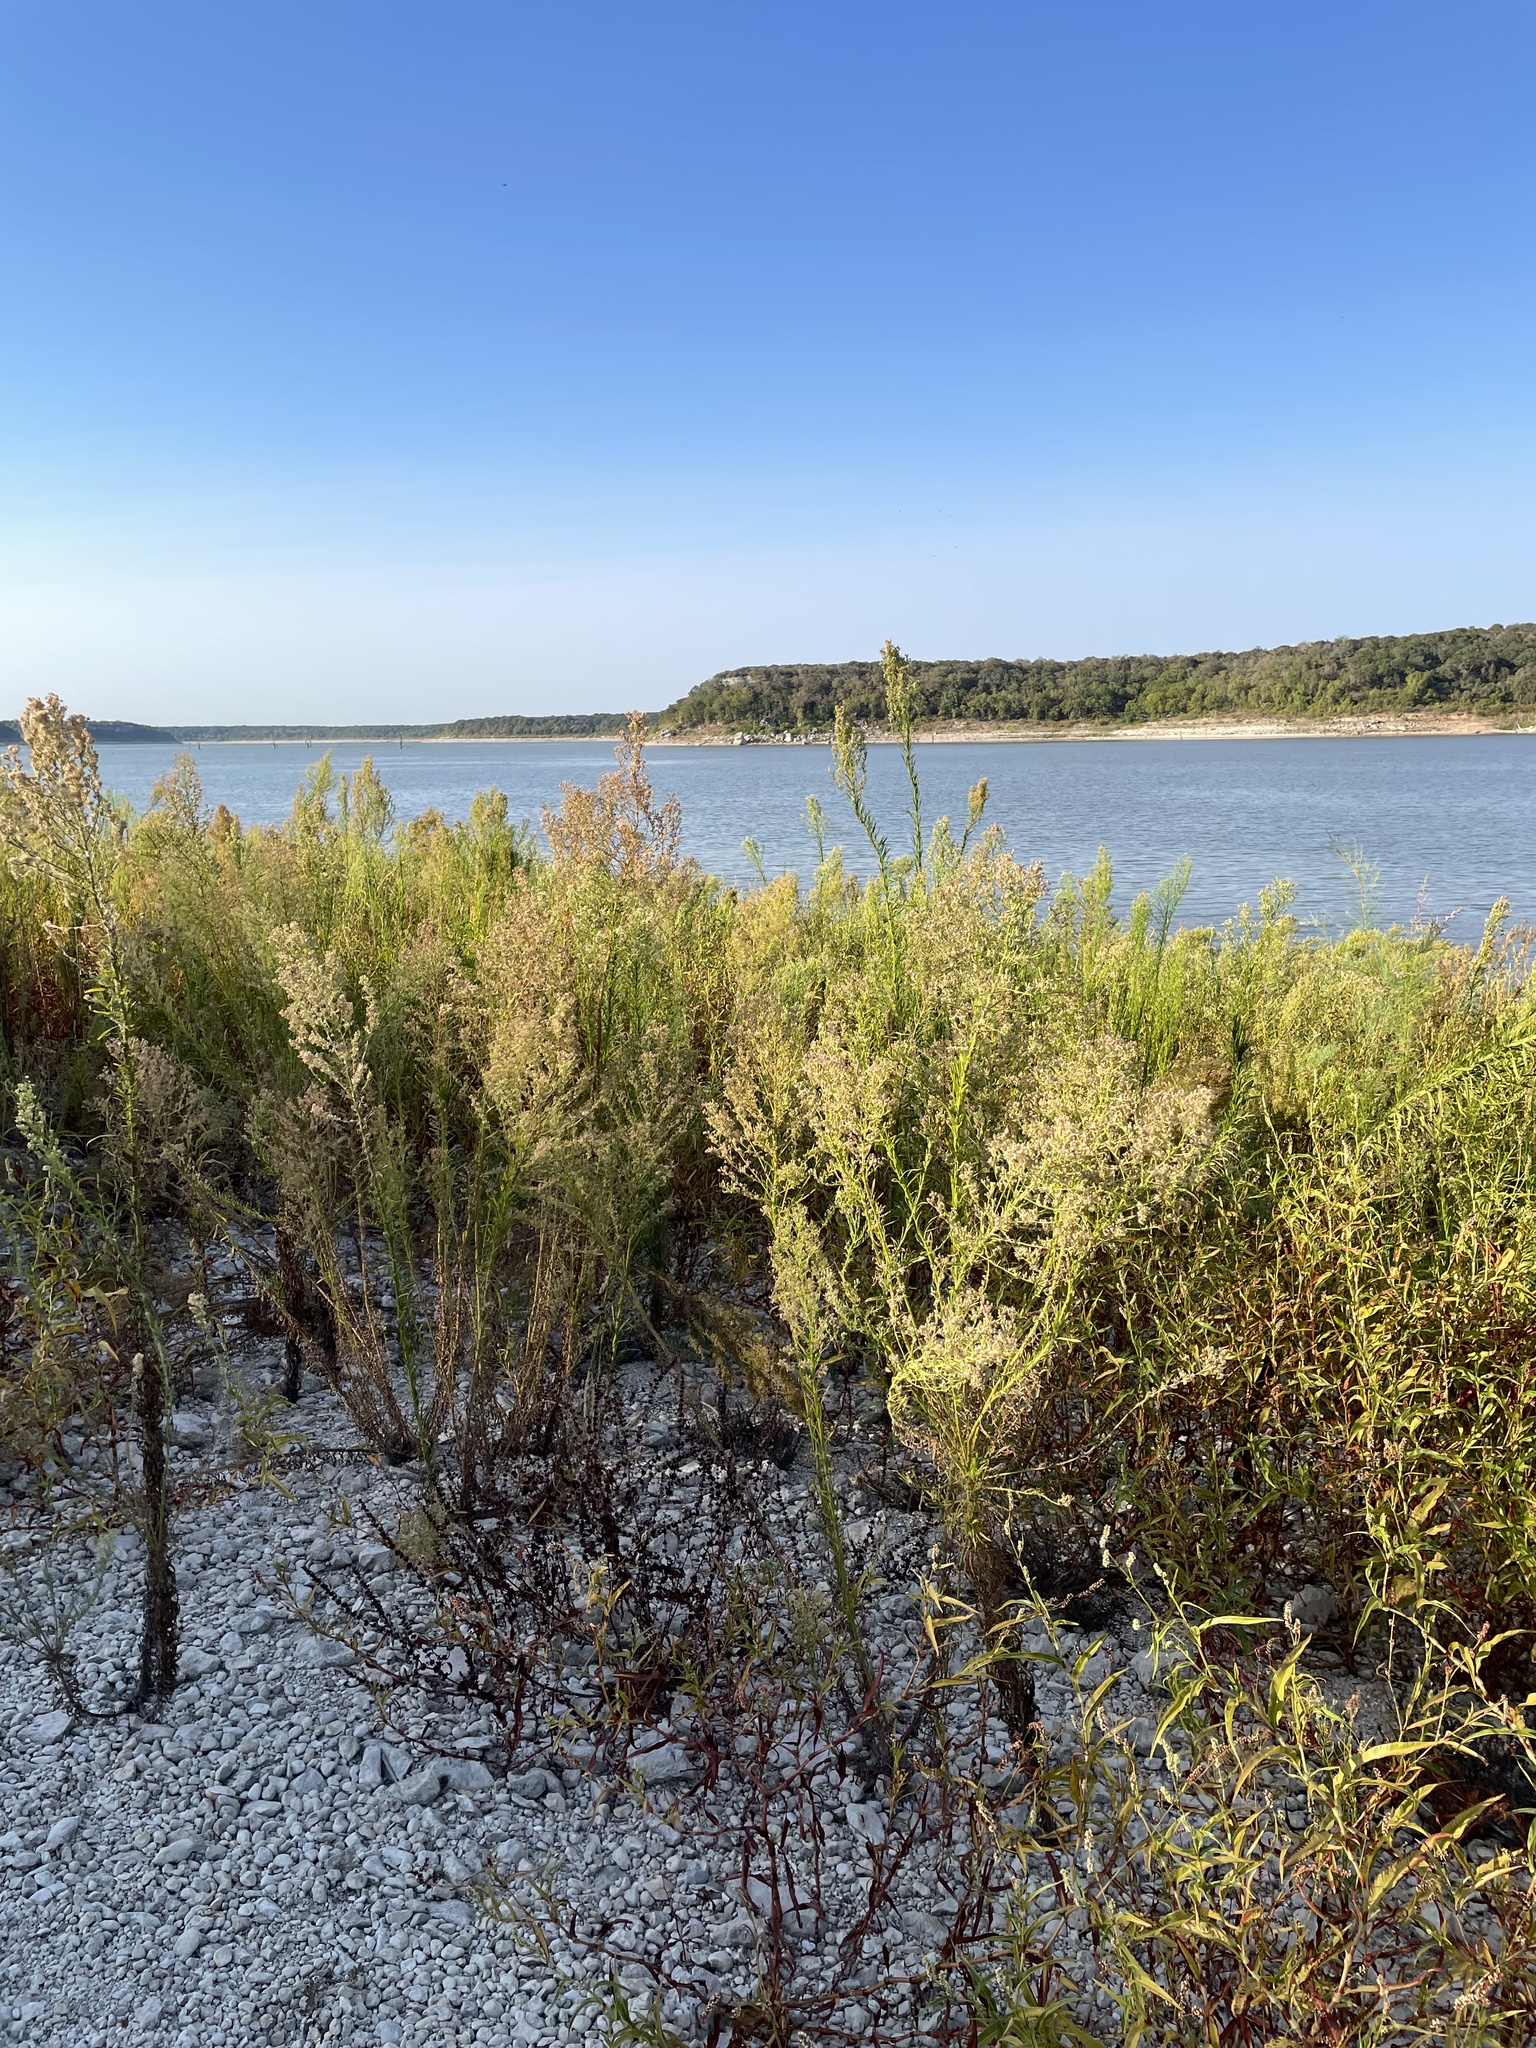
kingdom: Plantae
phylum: Tracheophyta
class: Magnoliopsida
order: Asterales
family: Asteraceae
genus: Erigeron
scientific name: Erigeron canadensis
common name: Canadian fleabane
